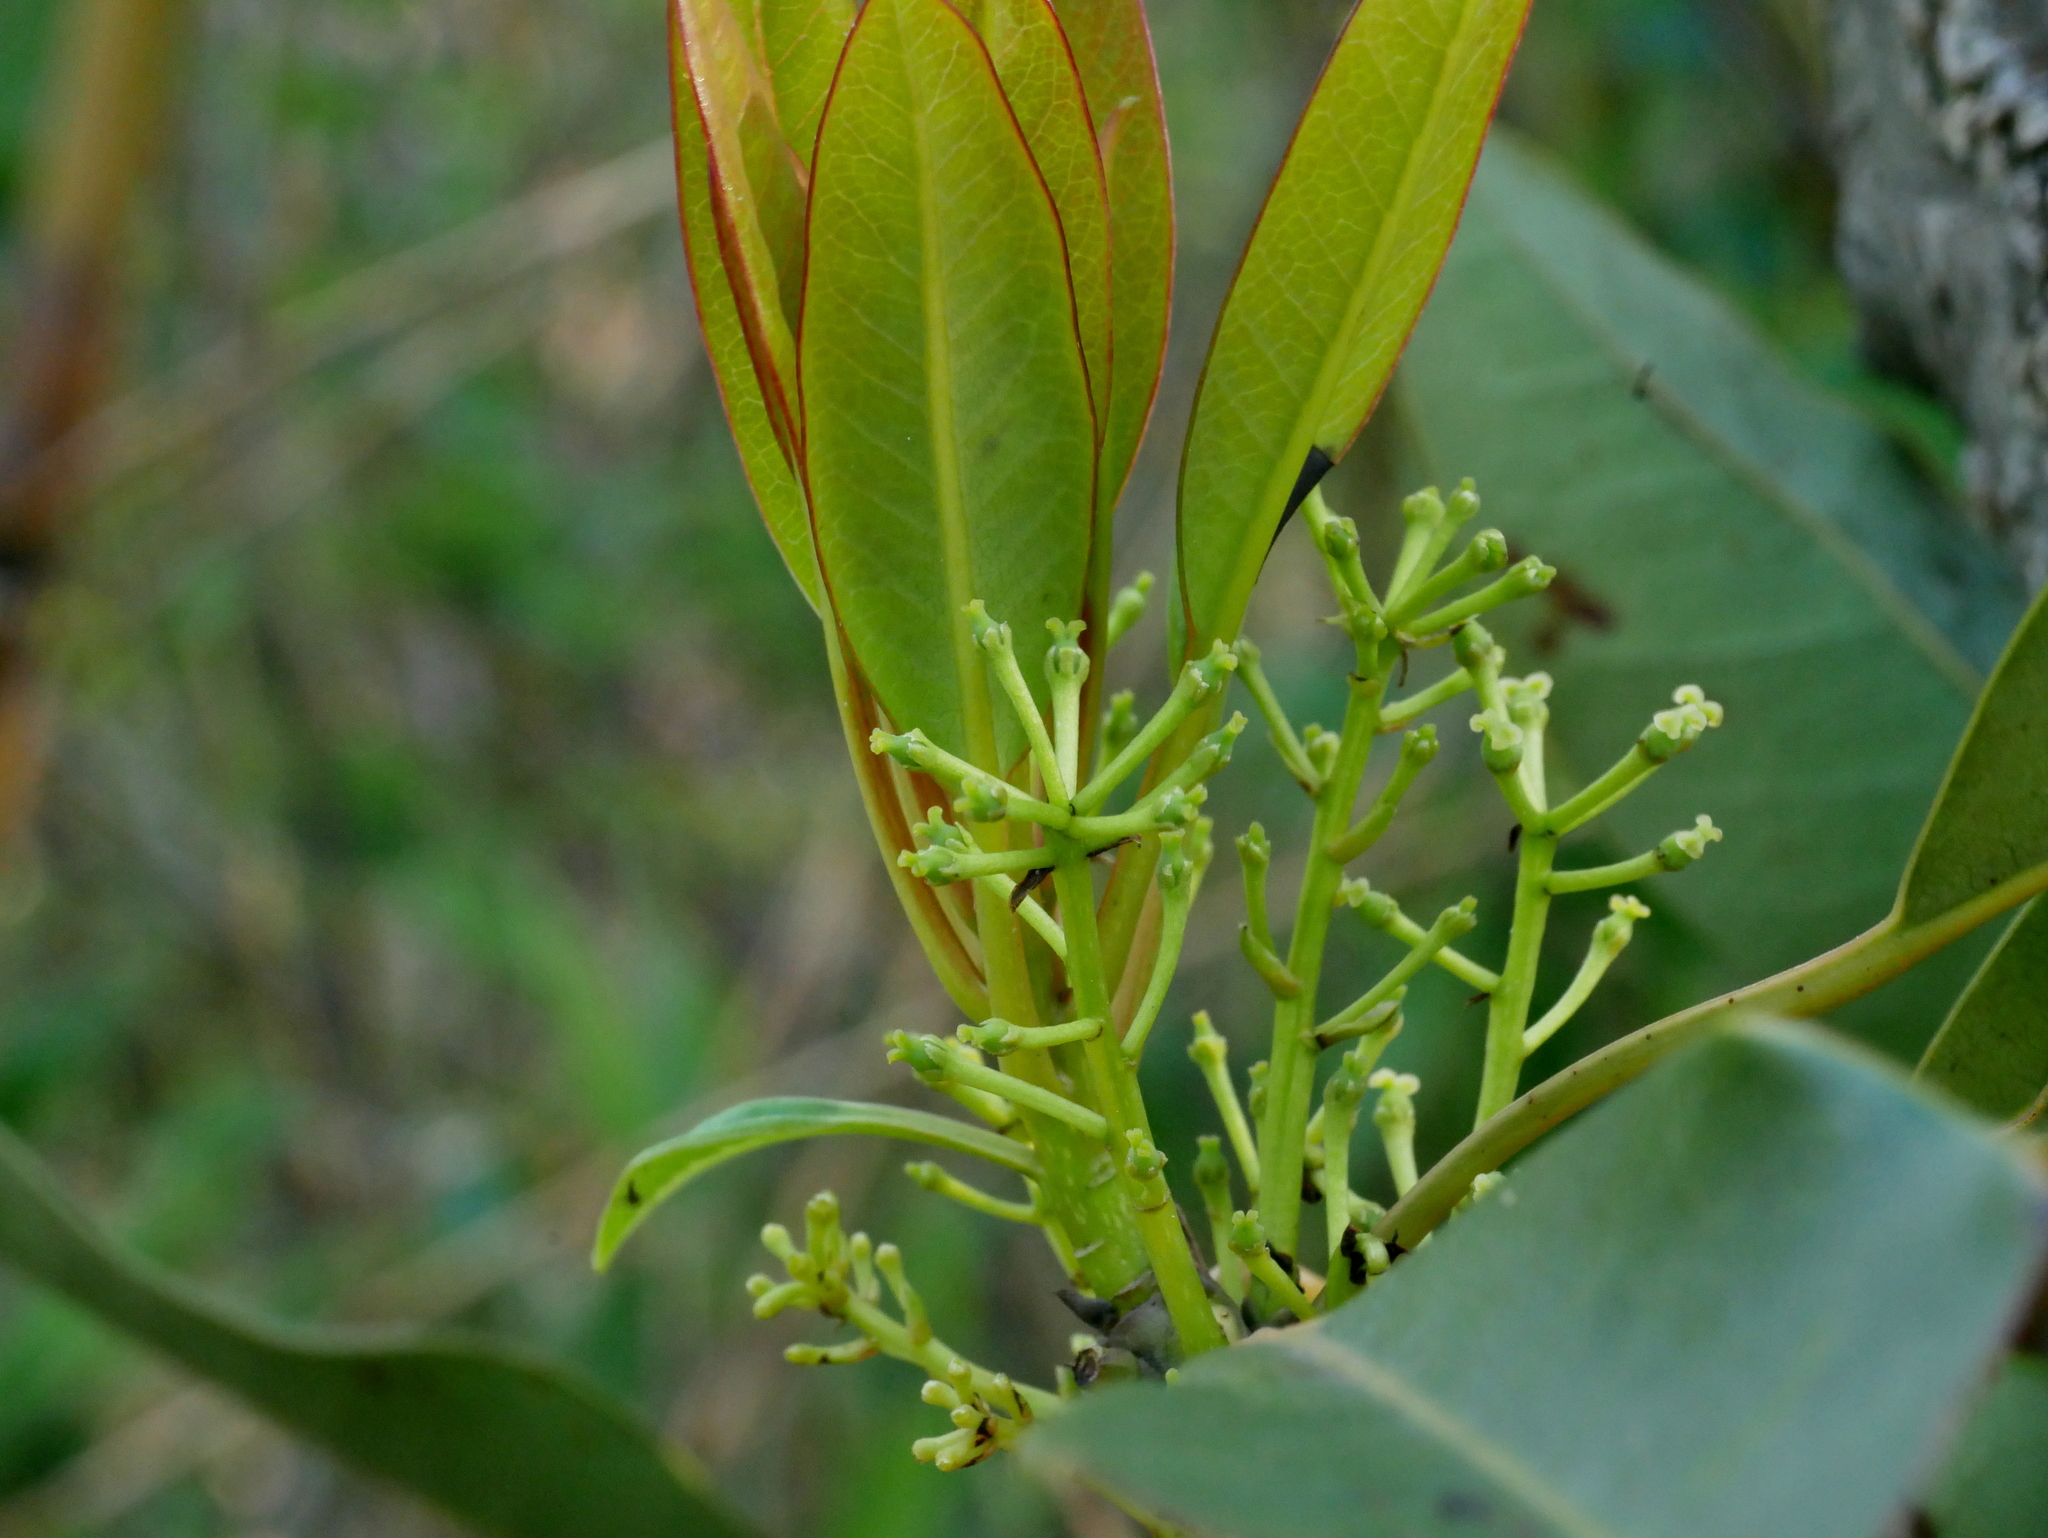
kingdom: Plantae
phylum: Tracheophyta
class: Magnoliopsida
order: Saxifragales
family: Daphniphyllaceae
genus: Daphniphyllum
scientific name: Daphniphyllum pentandrum
